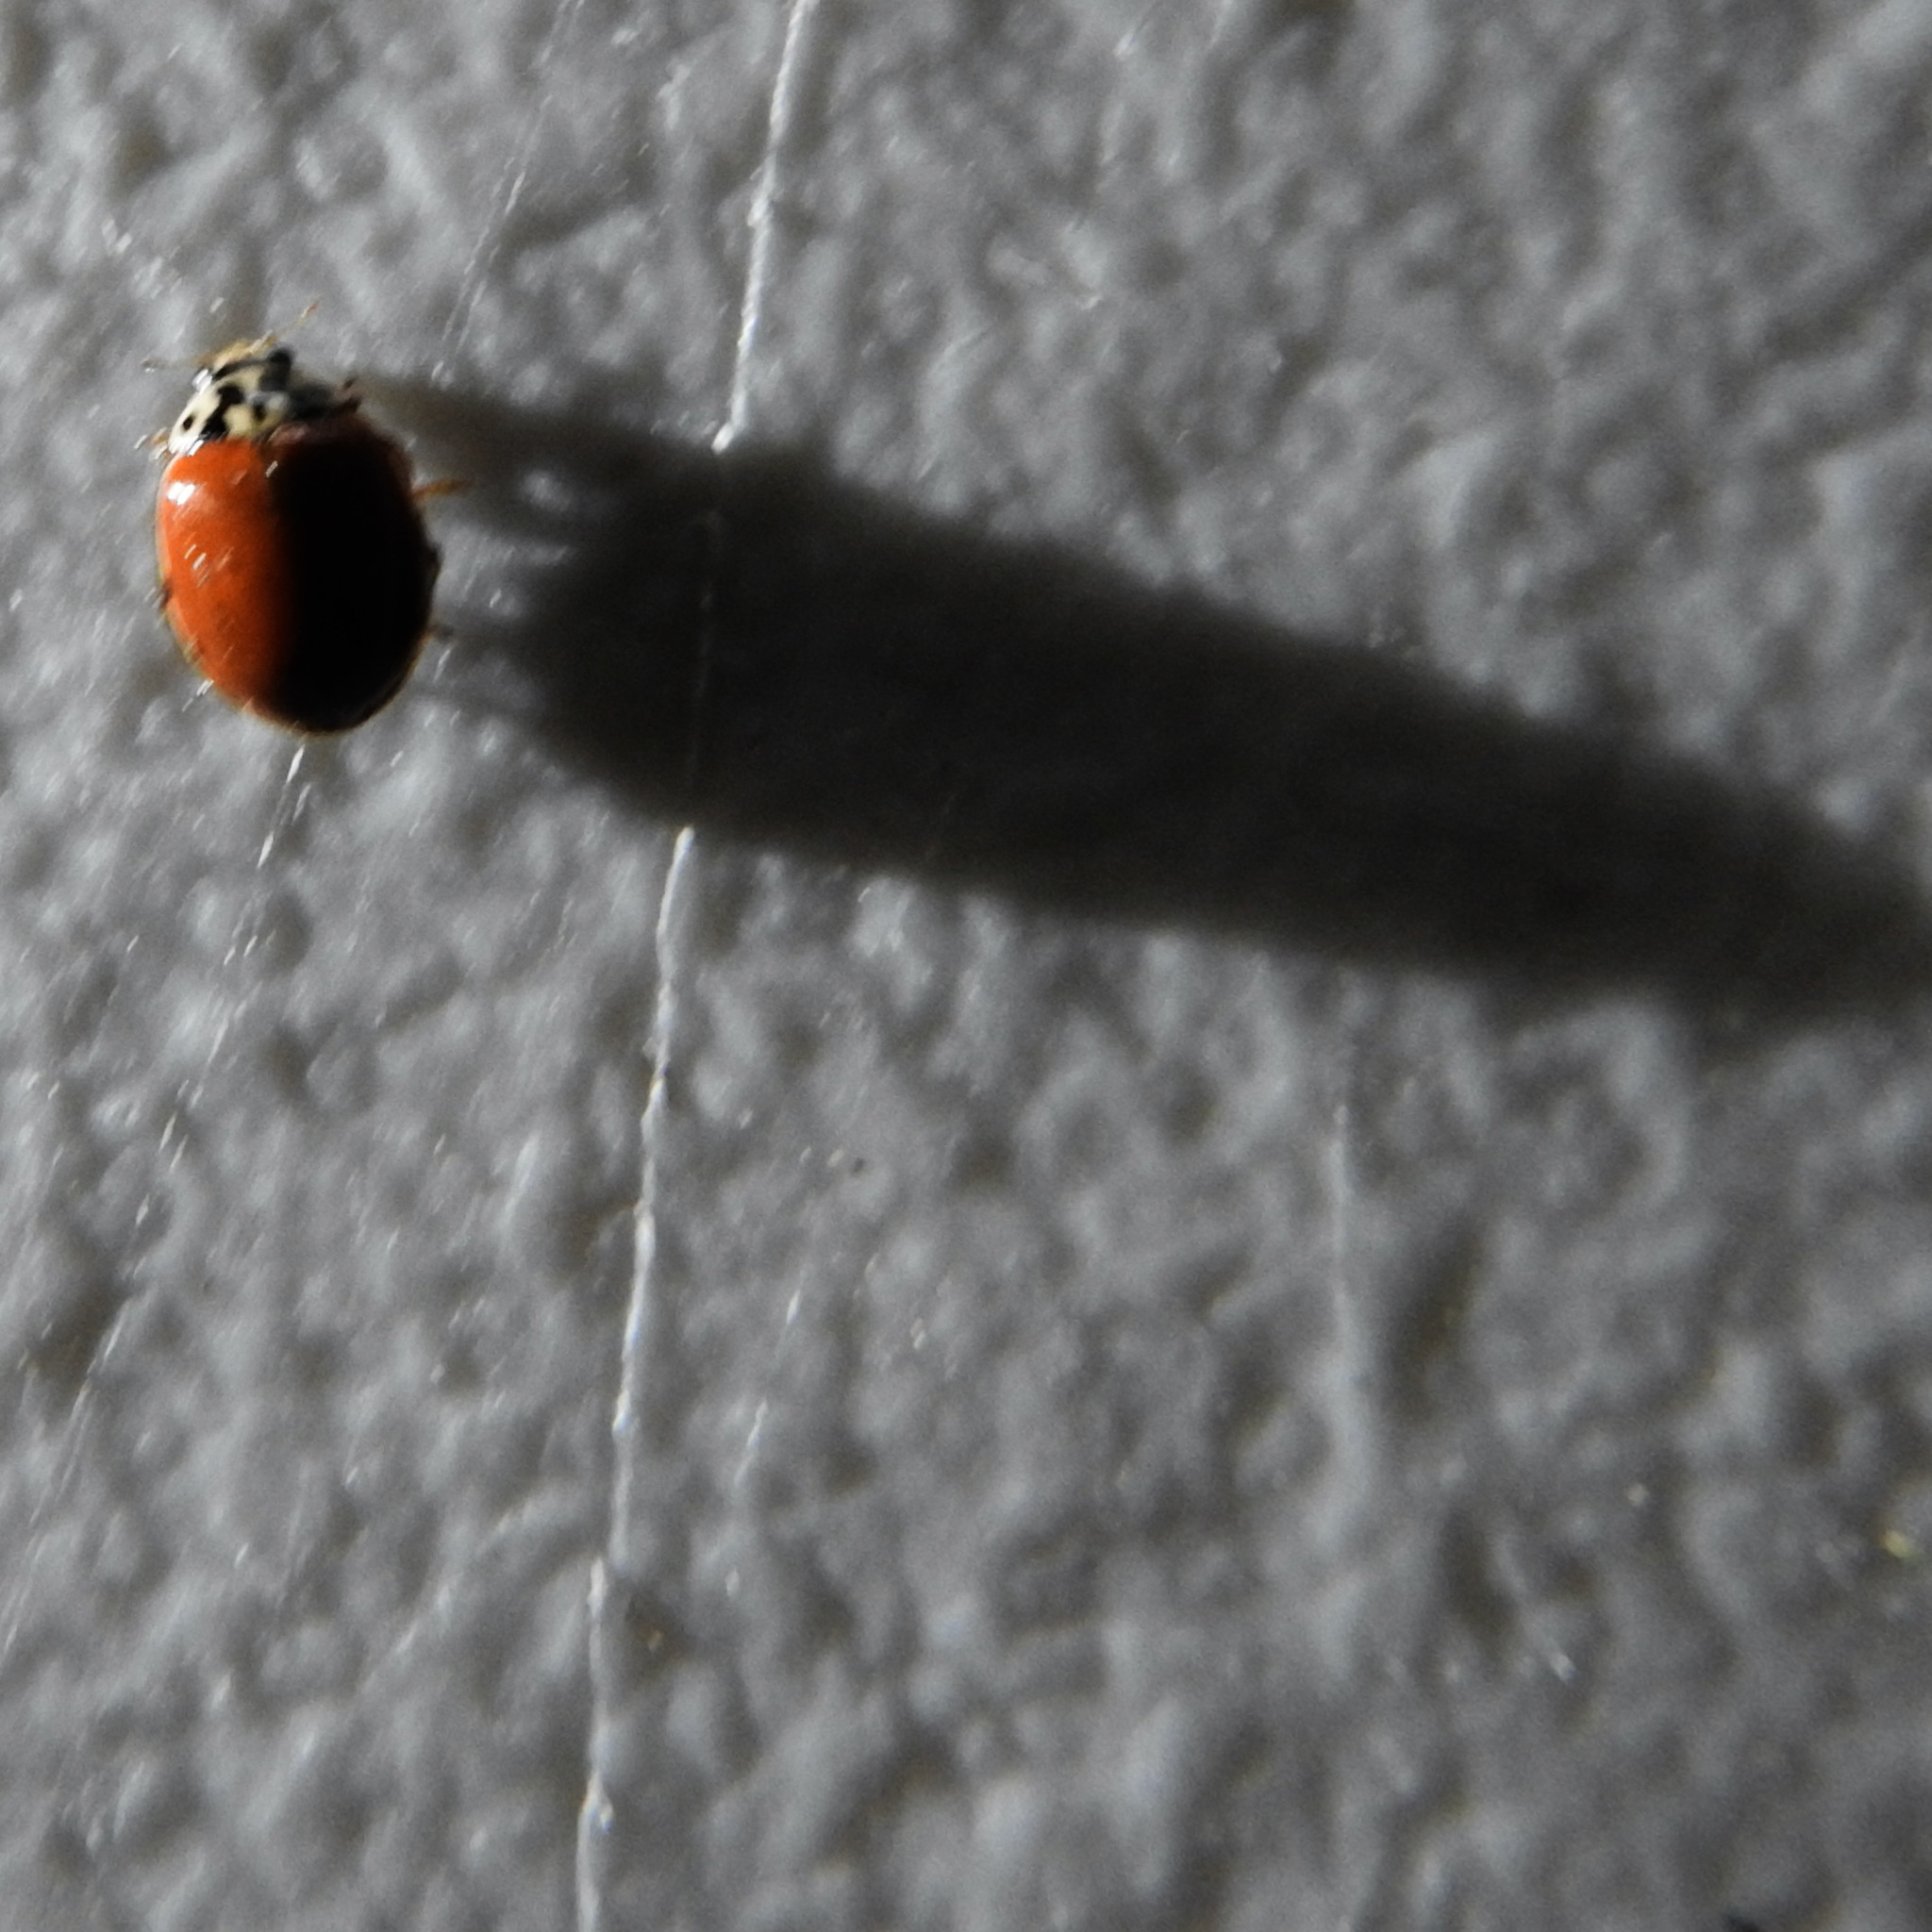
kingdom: Animalia
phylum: Arthropoda
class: Insecta
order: Coleoptera
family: Coccinellidae
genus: Harmonia
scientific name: Harmonia axyridis
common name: Harlequin ladybird
